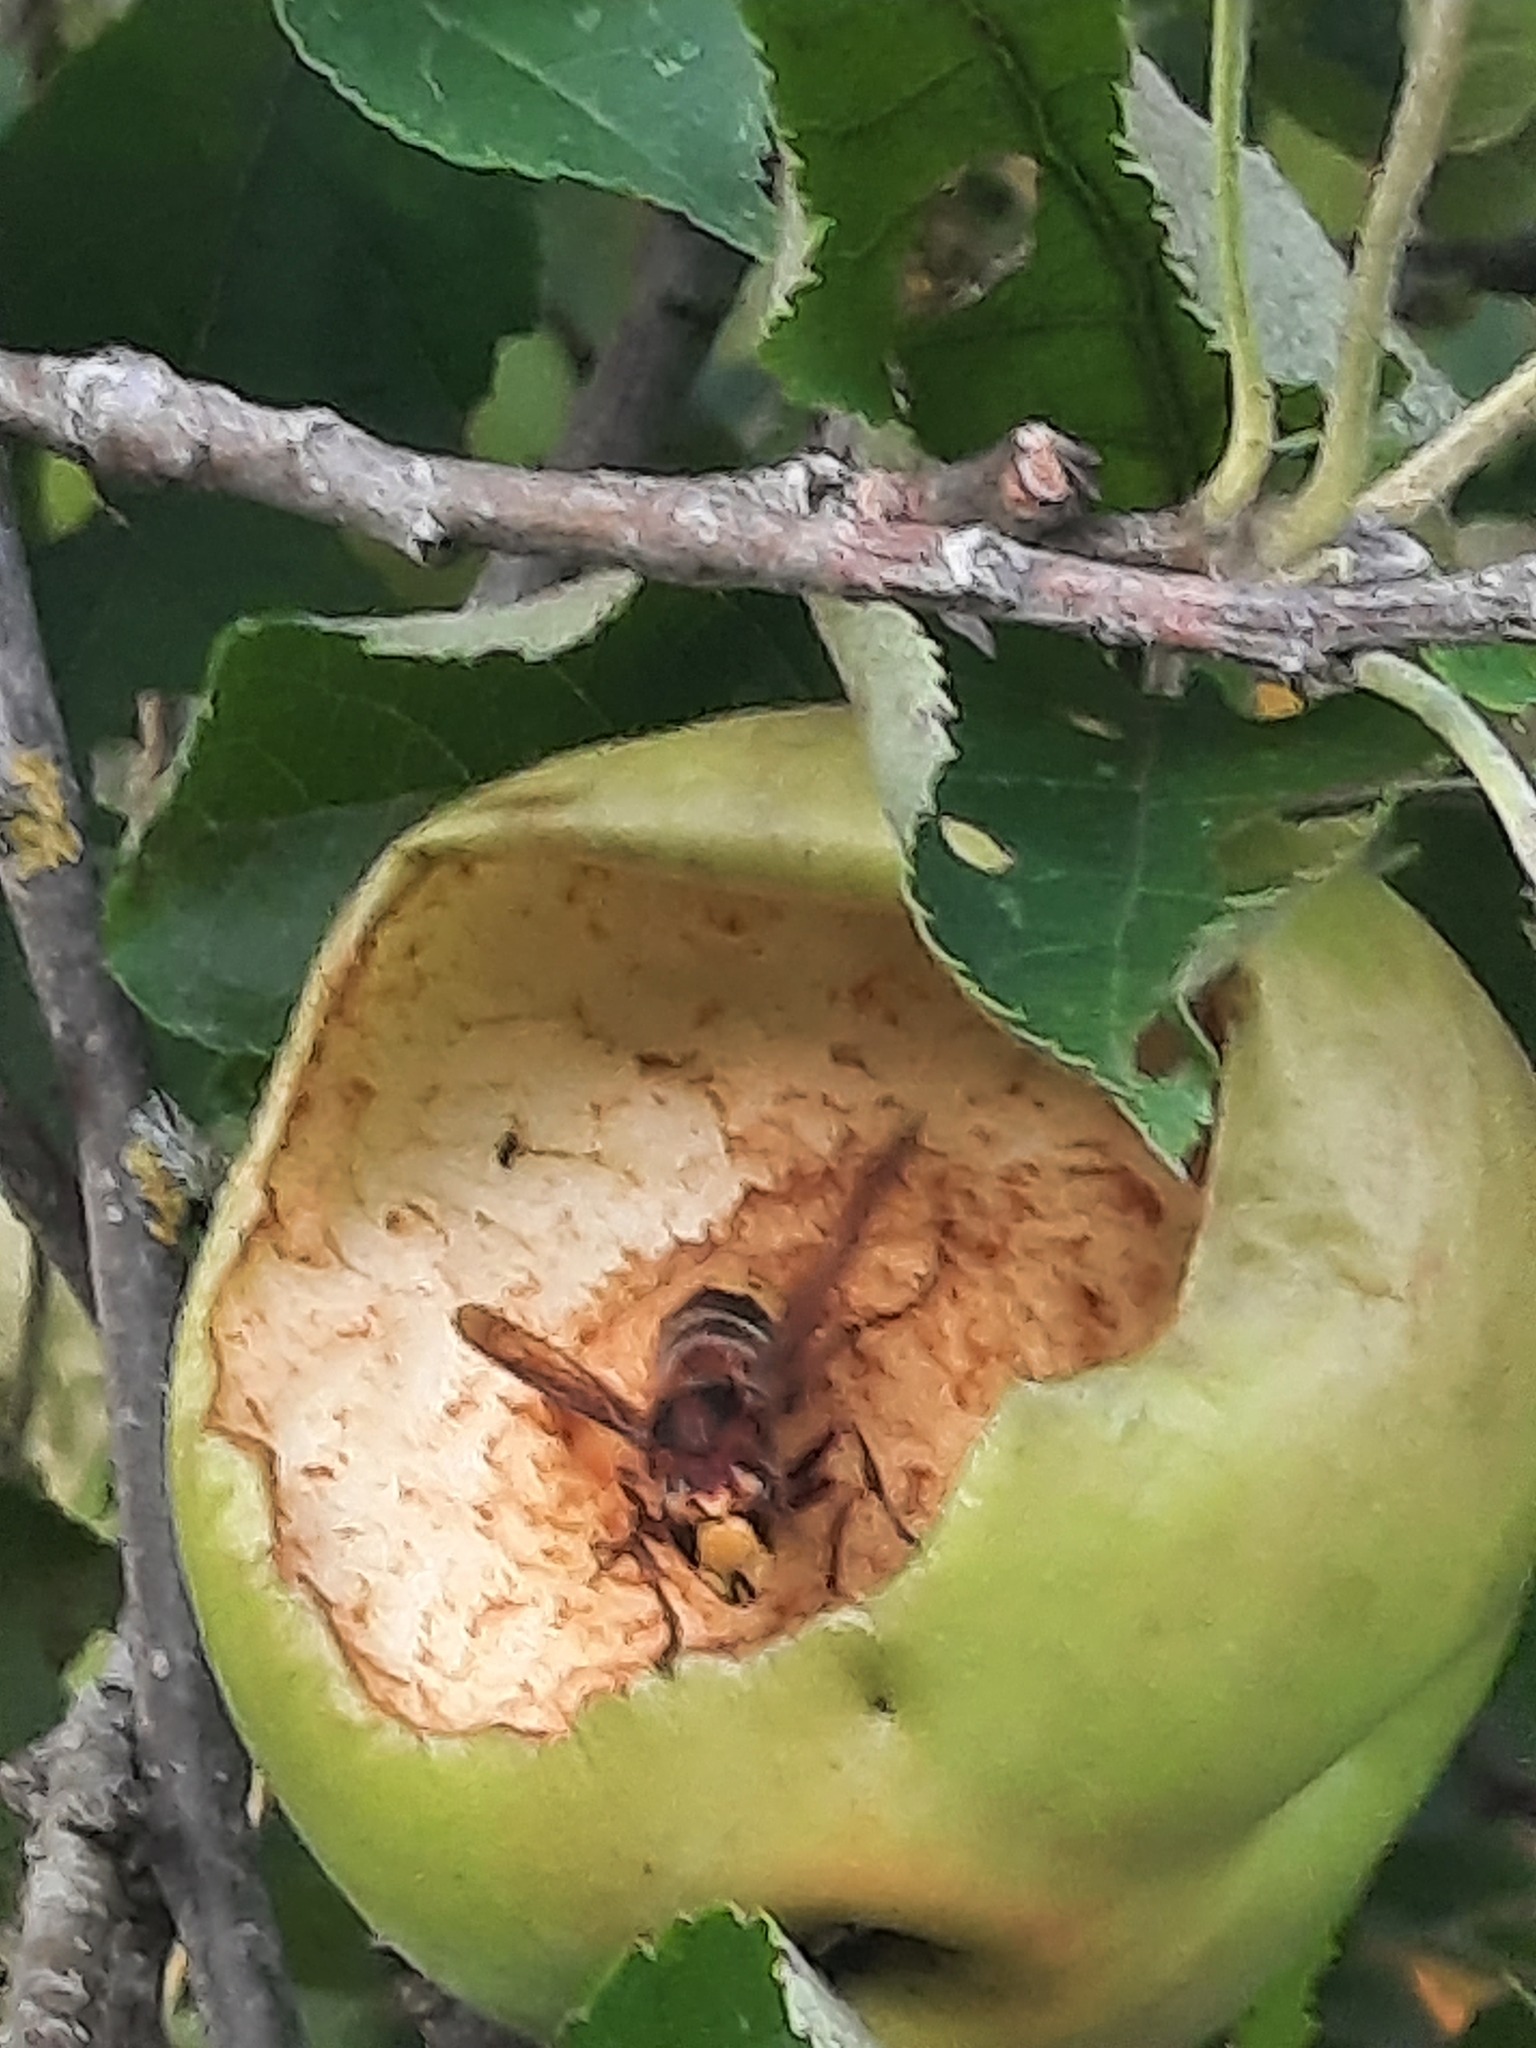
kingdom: Animalia
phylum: Arthropoda
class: Insecta
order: Hymenoptera
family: Vespidae
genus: Vespa
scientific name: Vespa crabro
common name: Hornet
